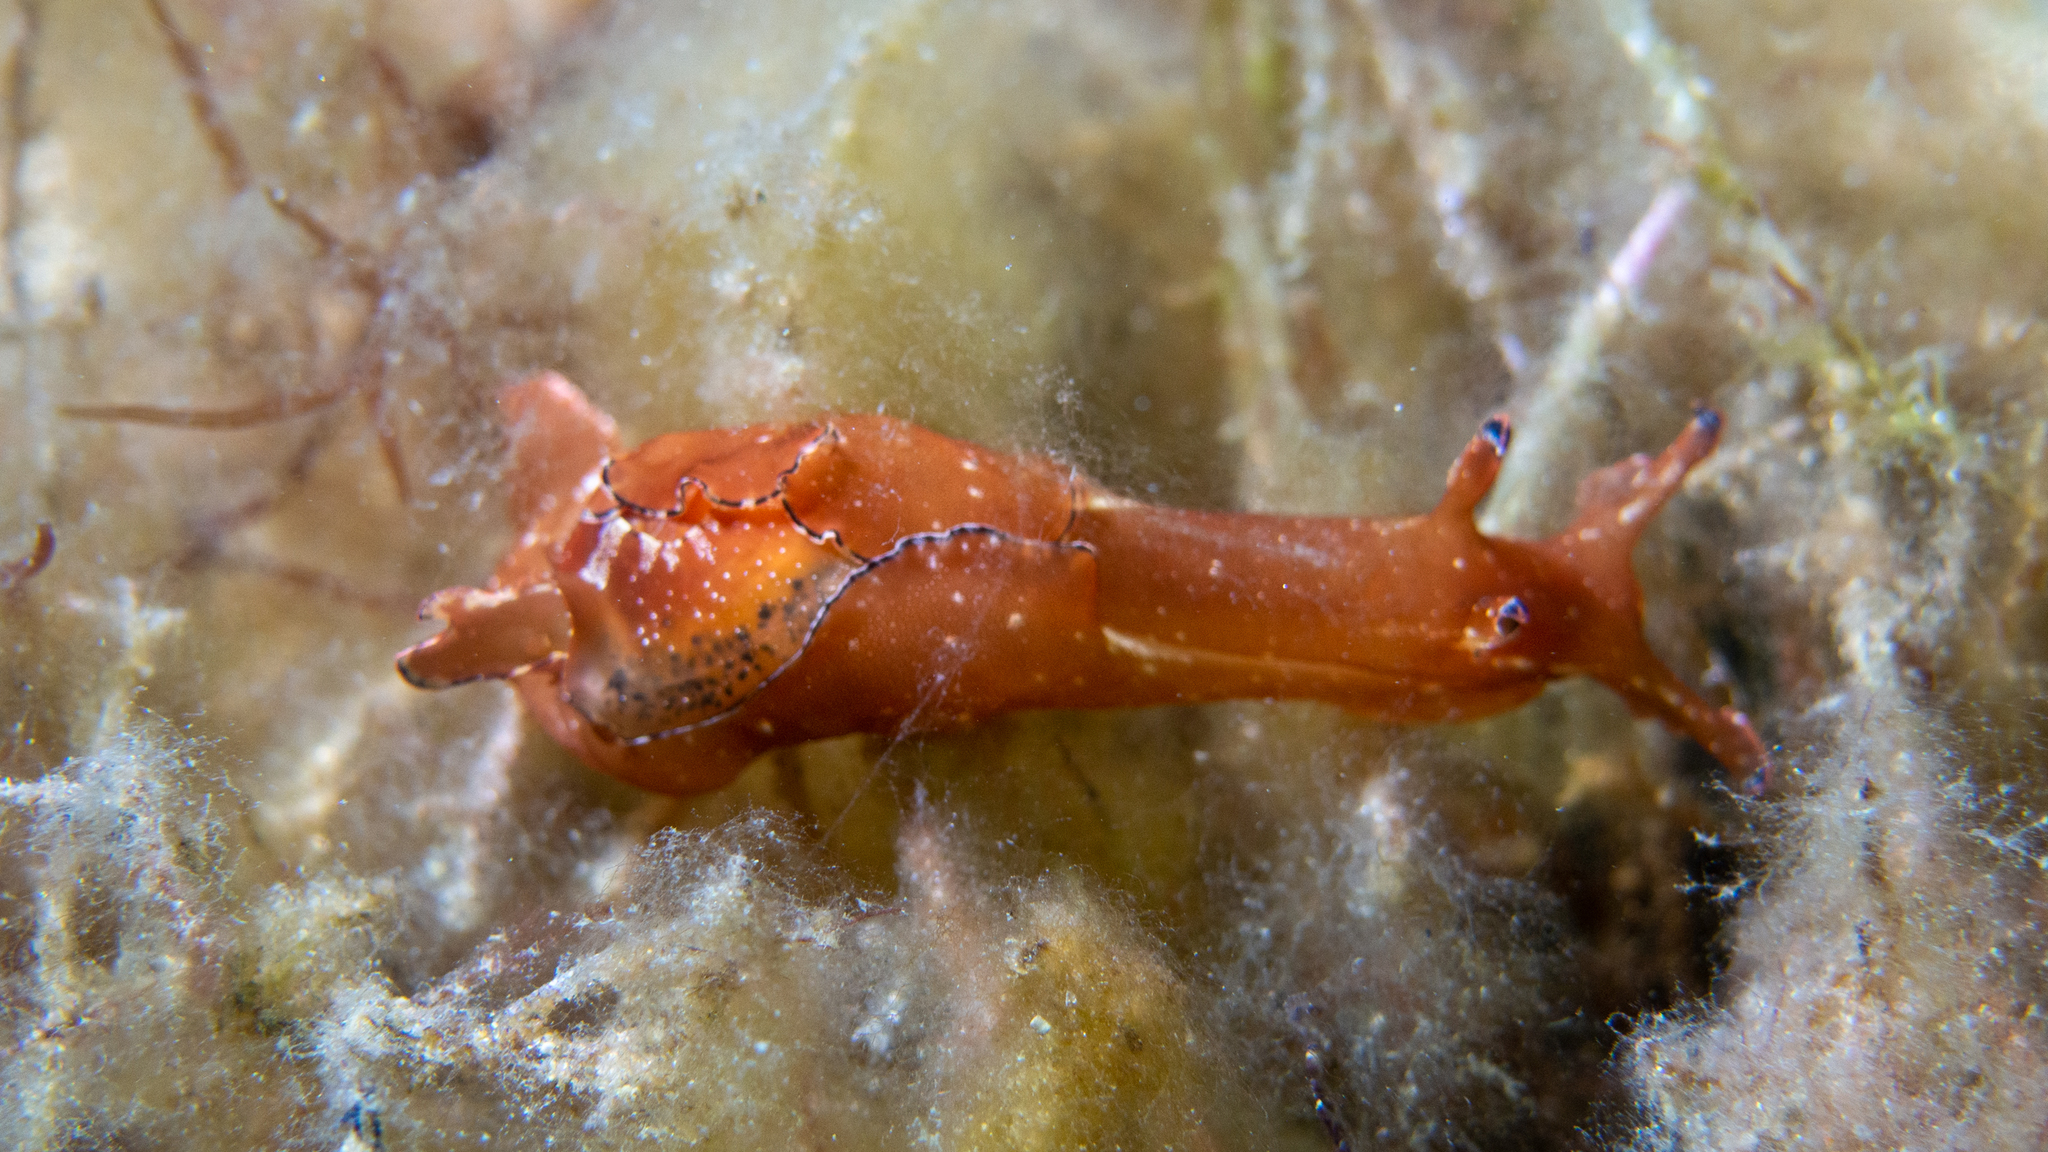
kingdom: Animalia
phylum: Mollusca
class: Gastropoda
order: Aplysiida
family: Aplysiidae
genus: Aplysia
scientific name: Aplysia concava
